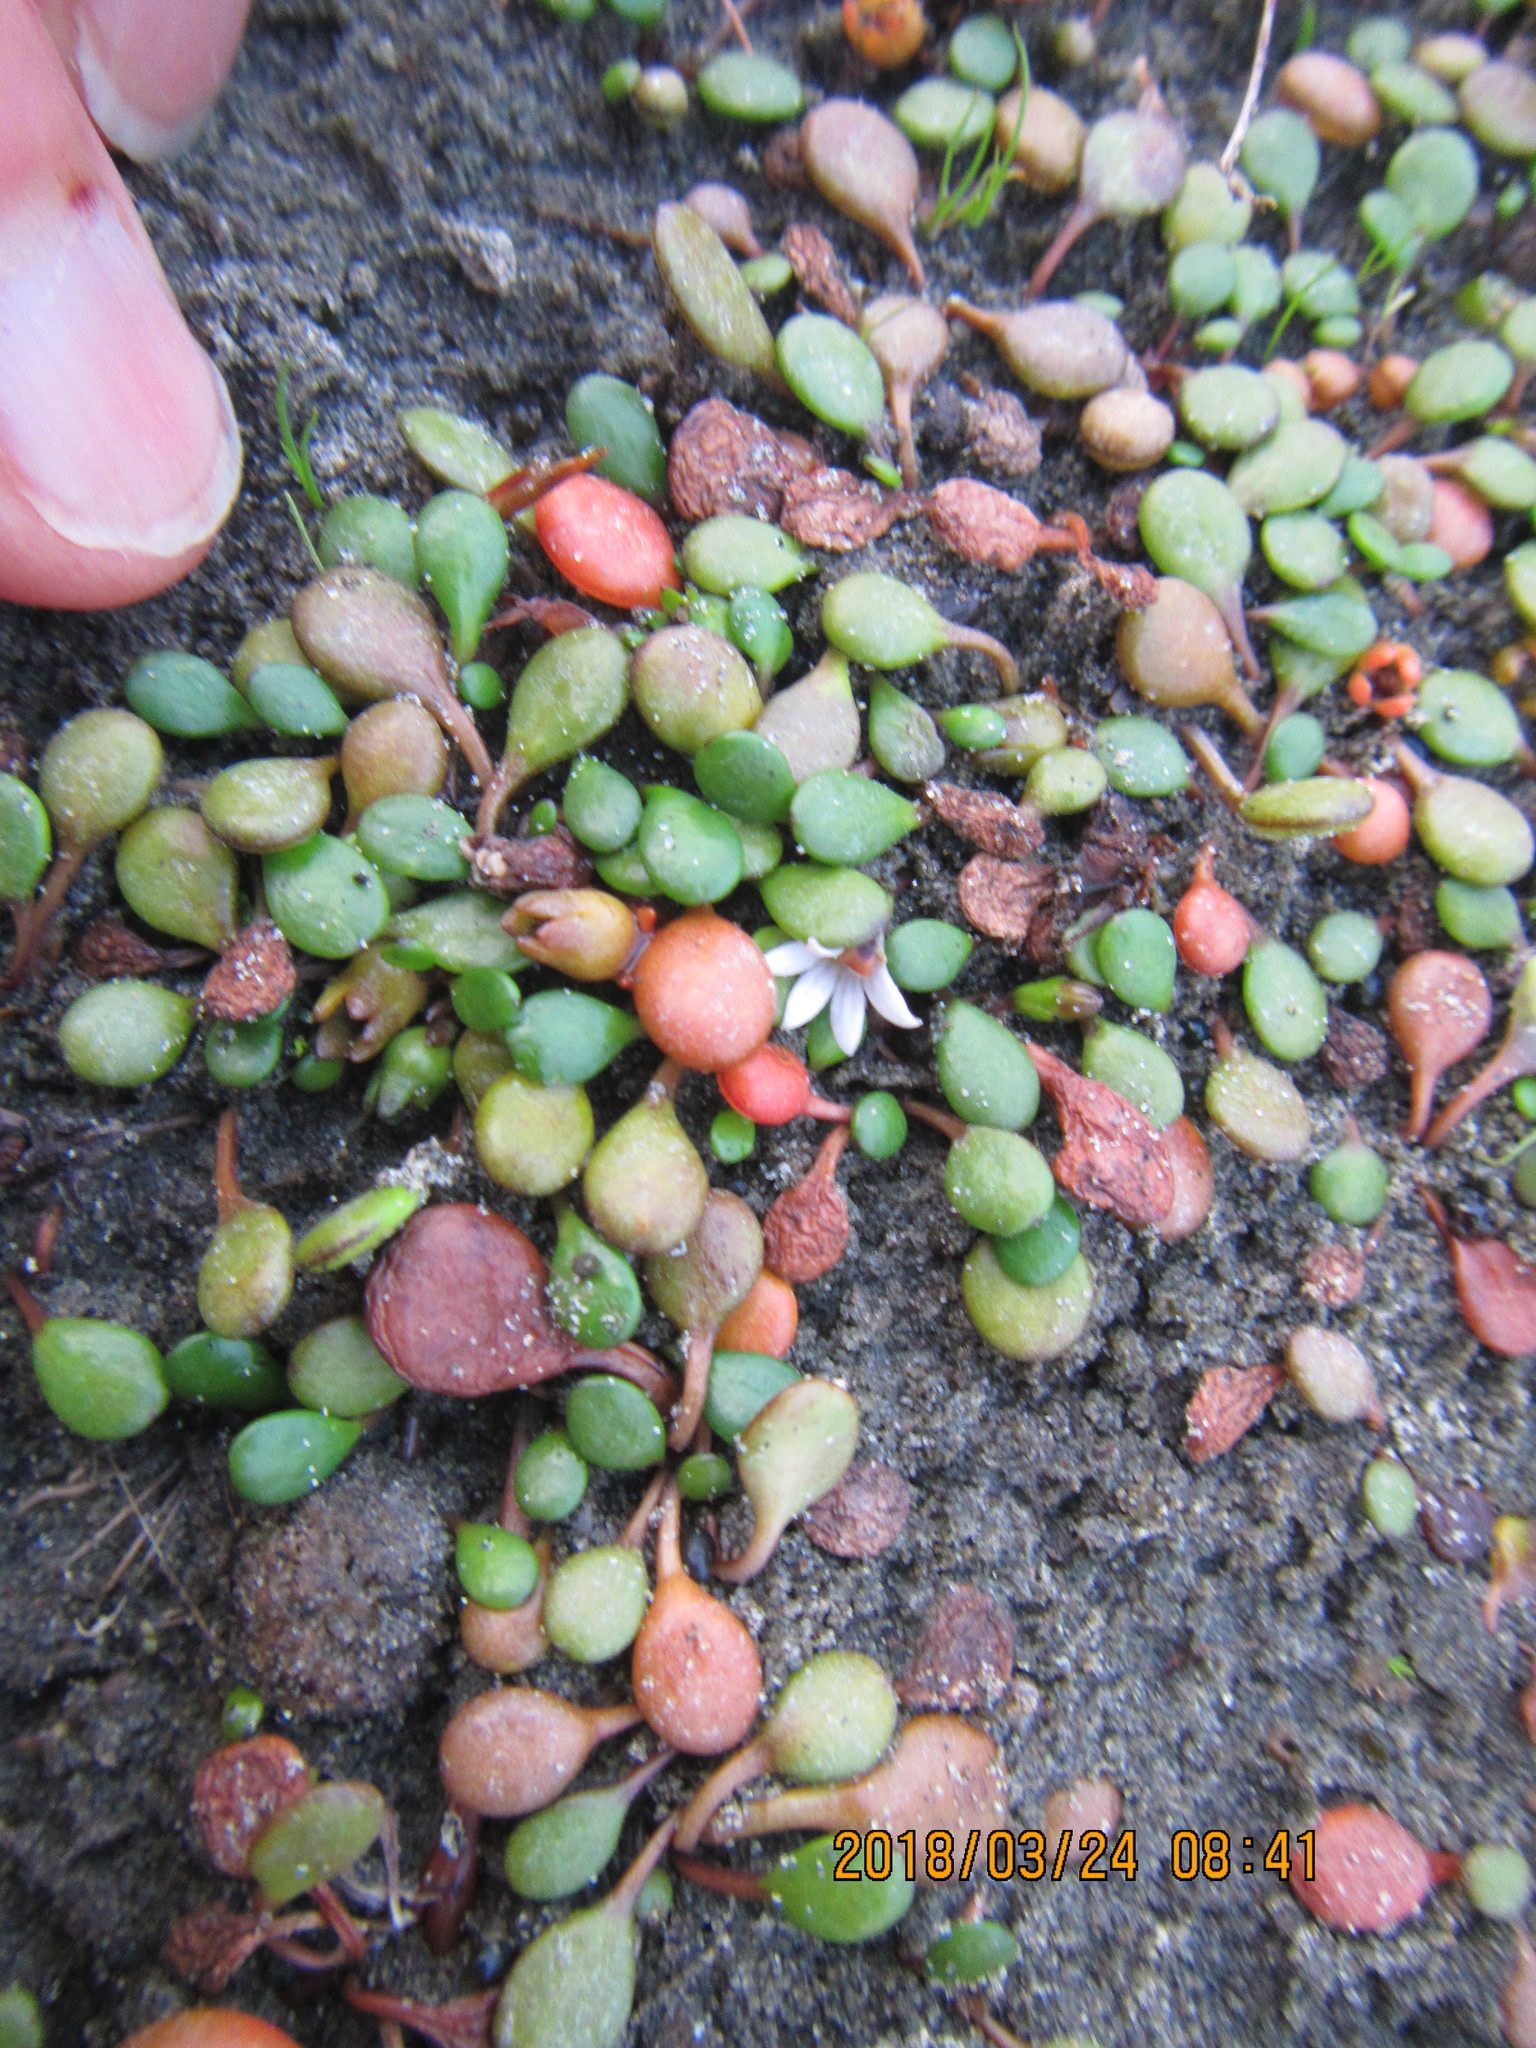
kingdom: Plantae
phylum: Tracheophyta
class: Magnoliopsida
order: Asterales
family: Goodeniaceae
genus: Goodenia
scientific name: Goodenia heenanii
